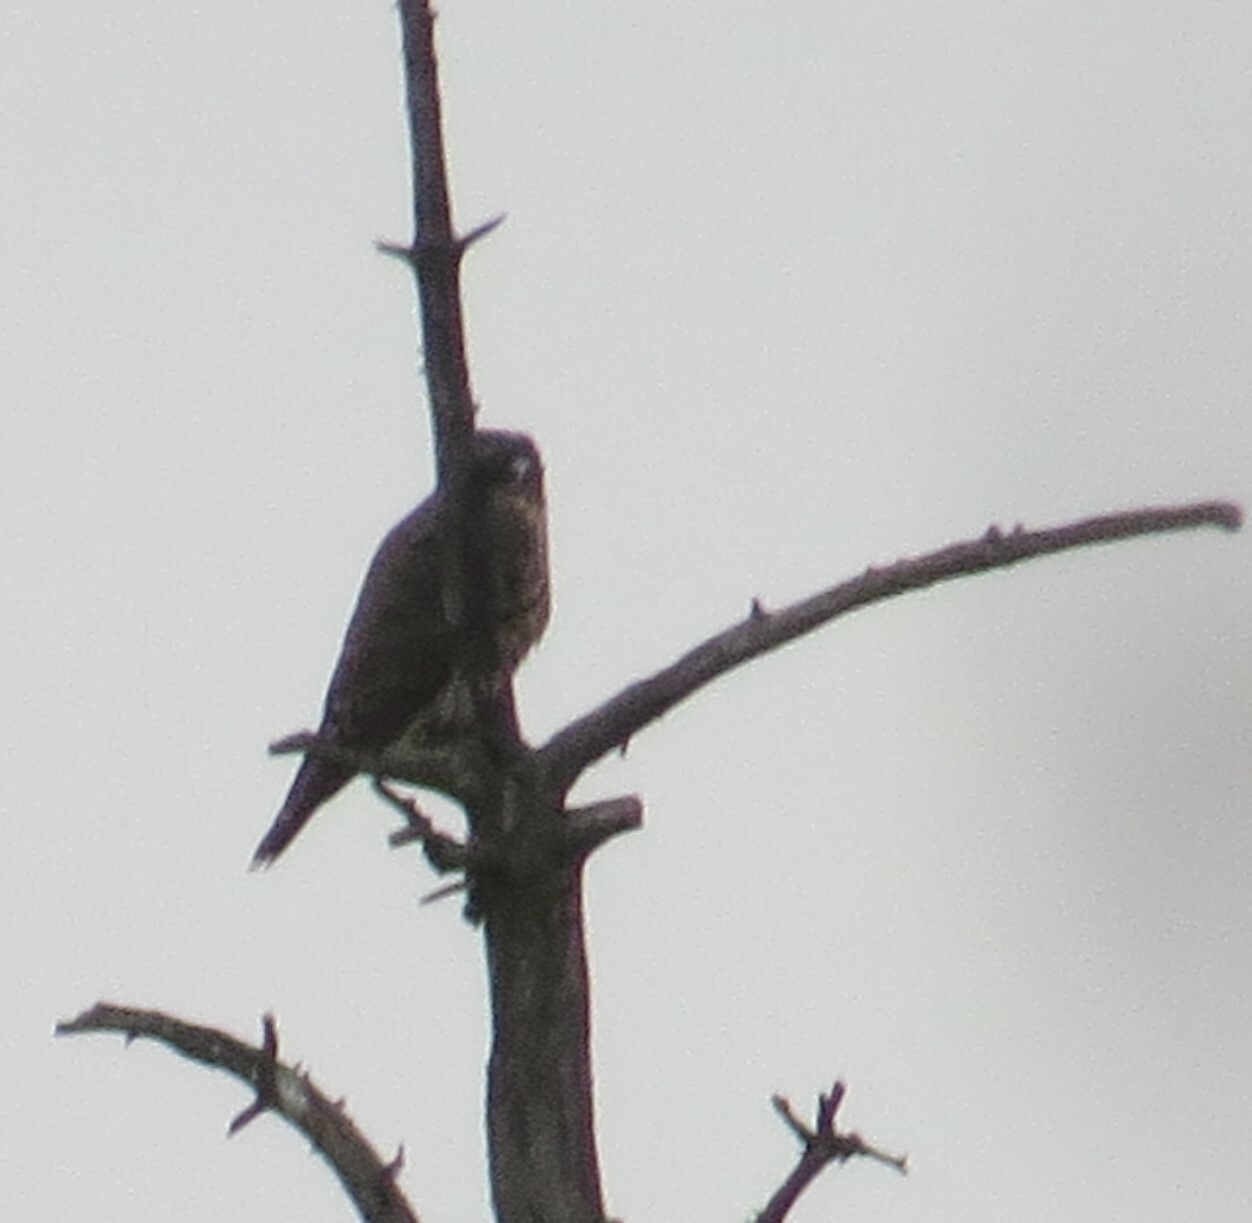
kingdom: Animalia
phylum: Chordata
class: Aves
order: Falconiformes
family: Falconidae
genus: Falco
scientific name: Falco columbarius
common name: Merlin
